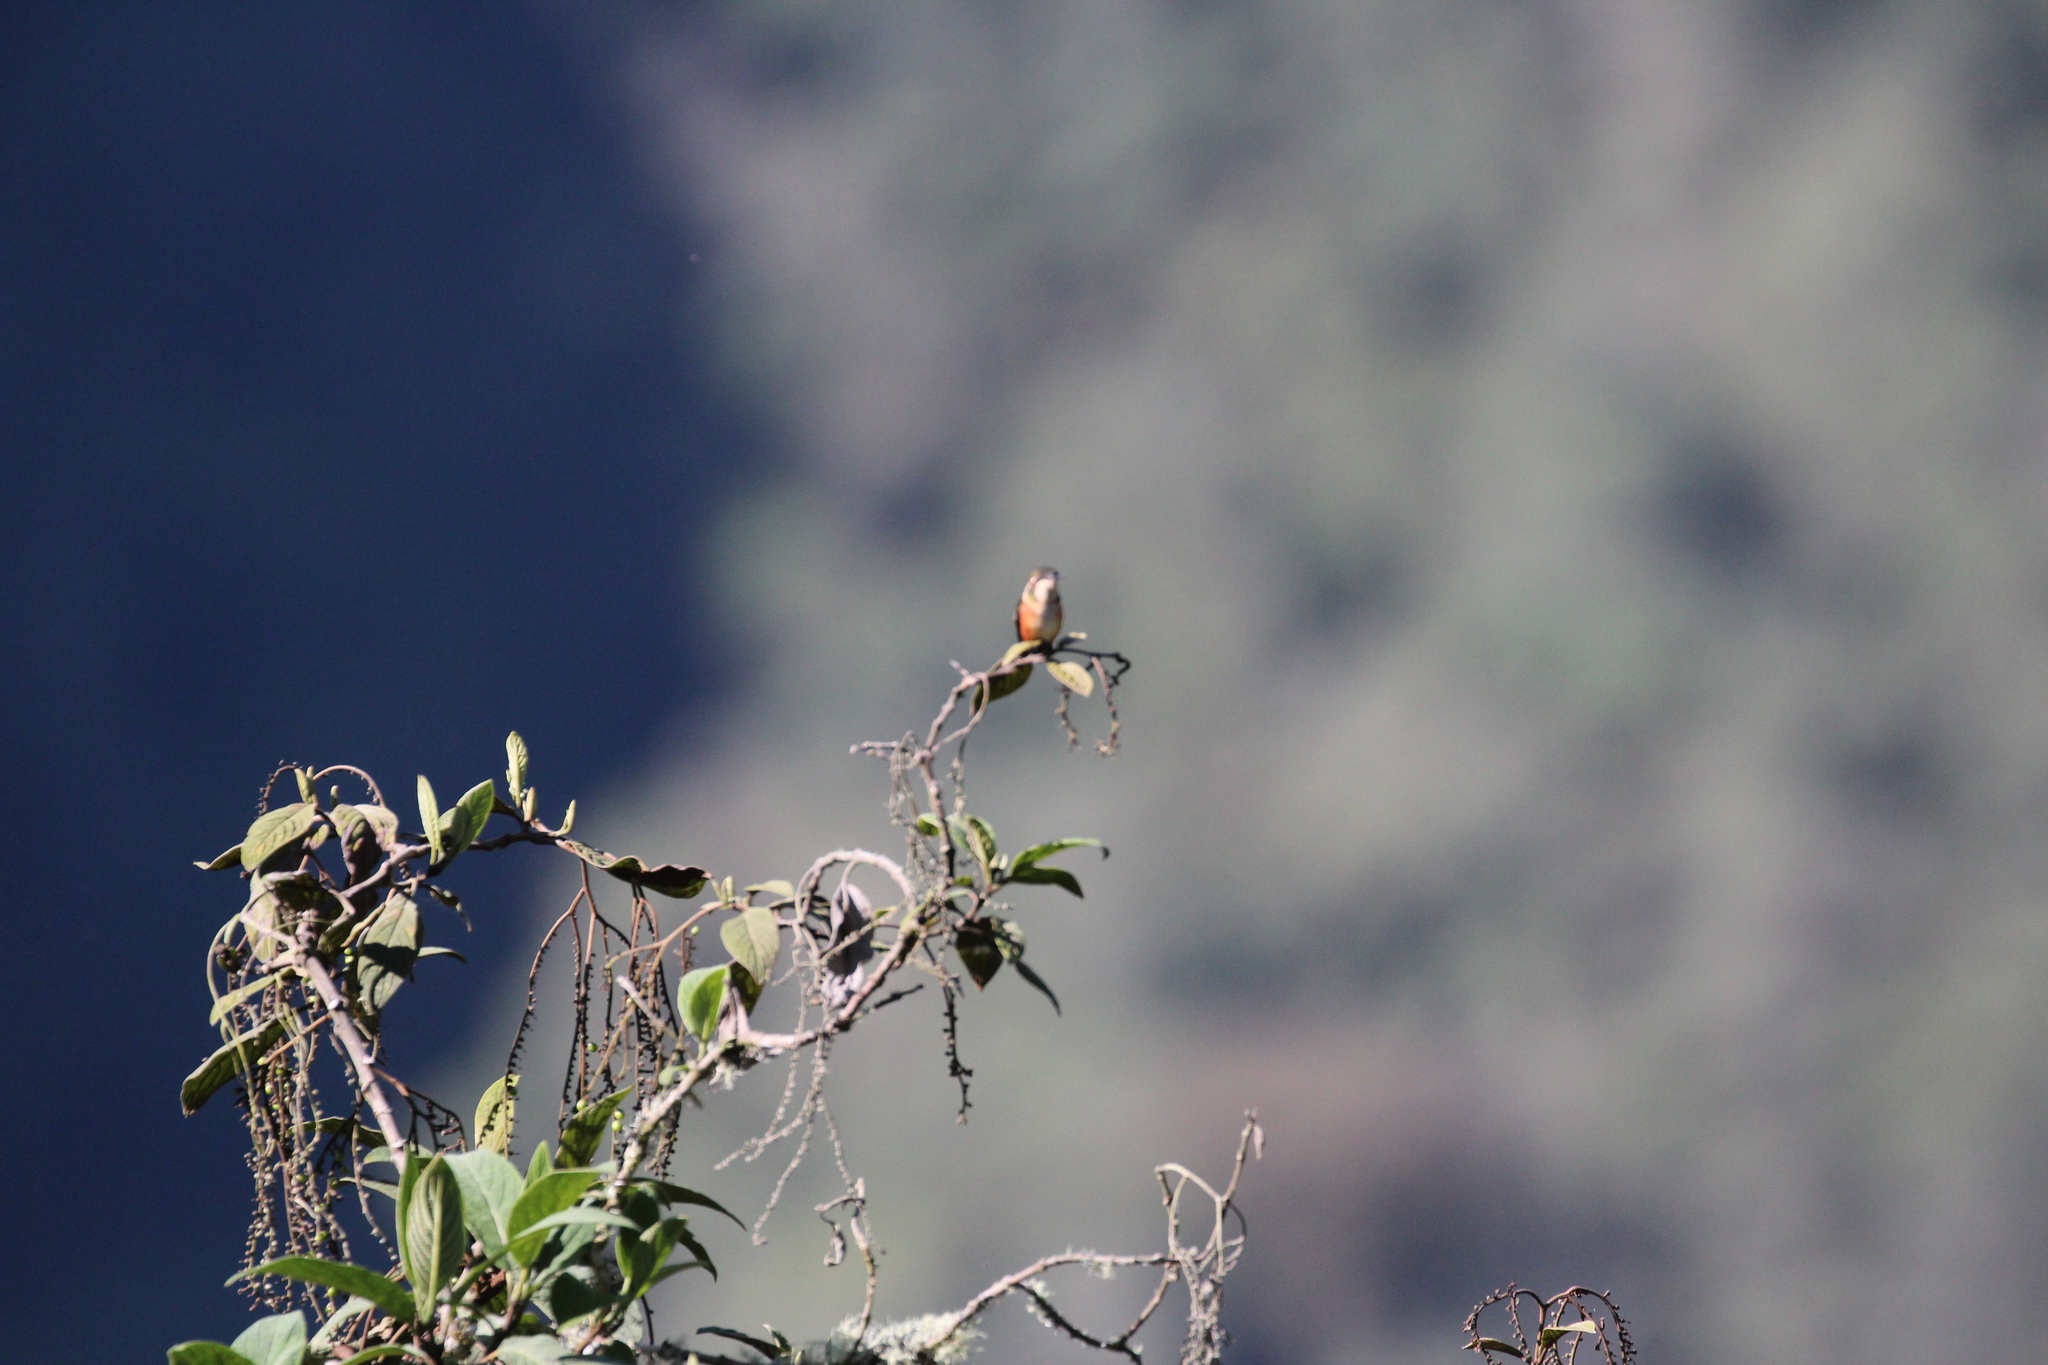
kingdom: Animalia
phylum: Chordata
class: Aves
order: Apodiformes
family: Trochilidae
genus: Chaetocercus
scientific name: Chaetocercus mulsant
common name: White-bellied woodstar
